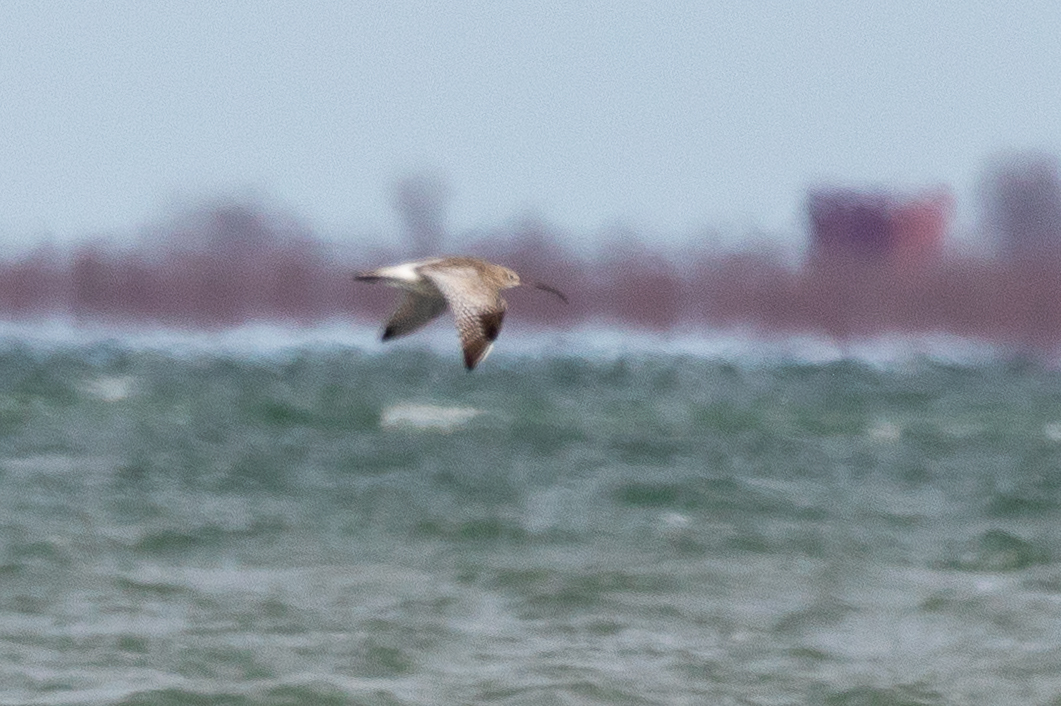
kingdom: Animalia
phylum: Chordata
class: Aves
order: Charadriiformes
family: Scolopacidae
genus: Numenius
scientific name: Numenius arquata
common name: Eurasian curlew
